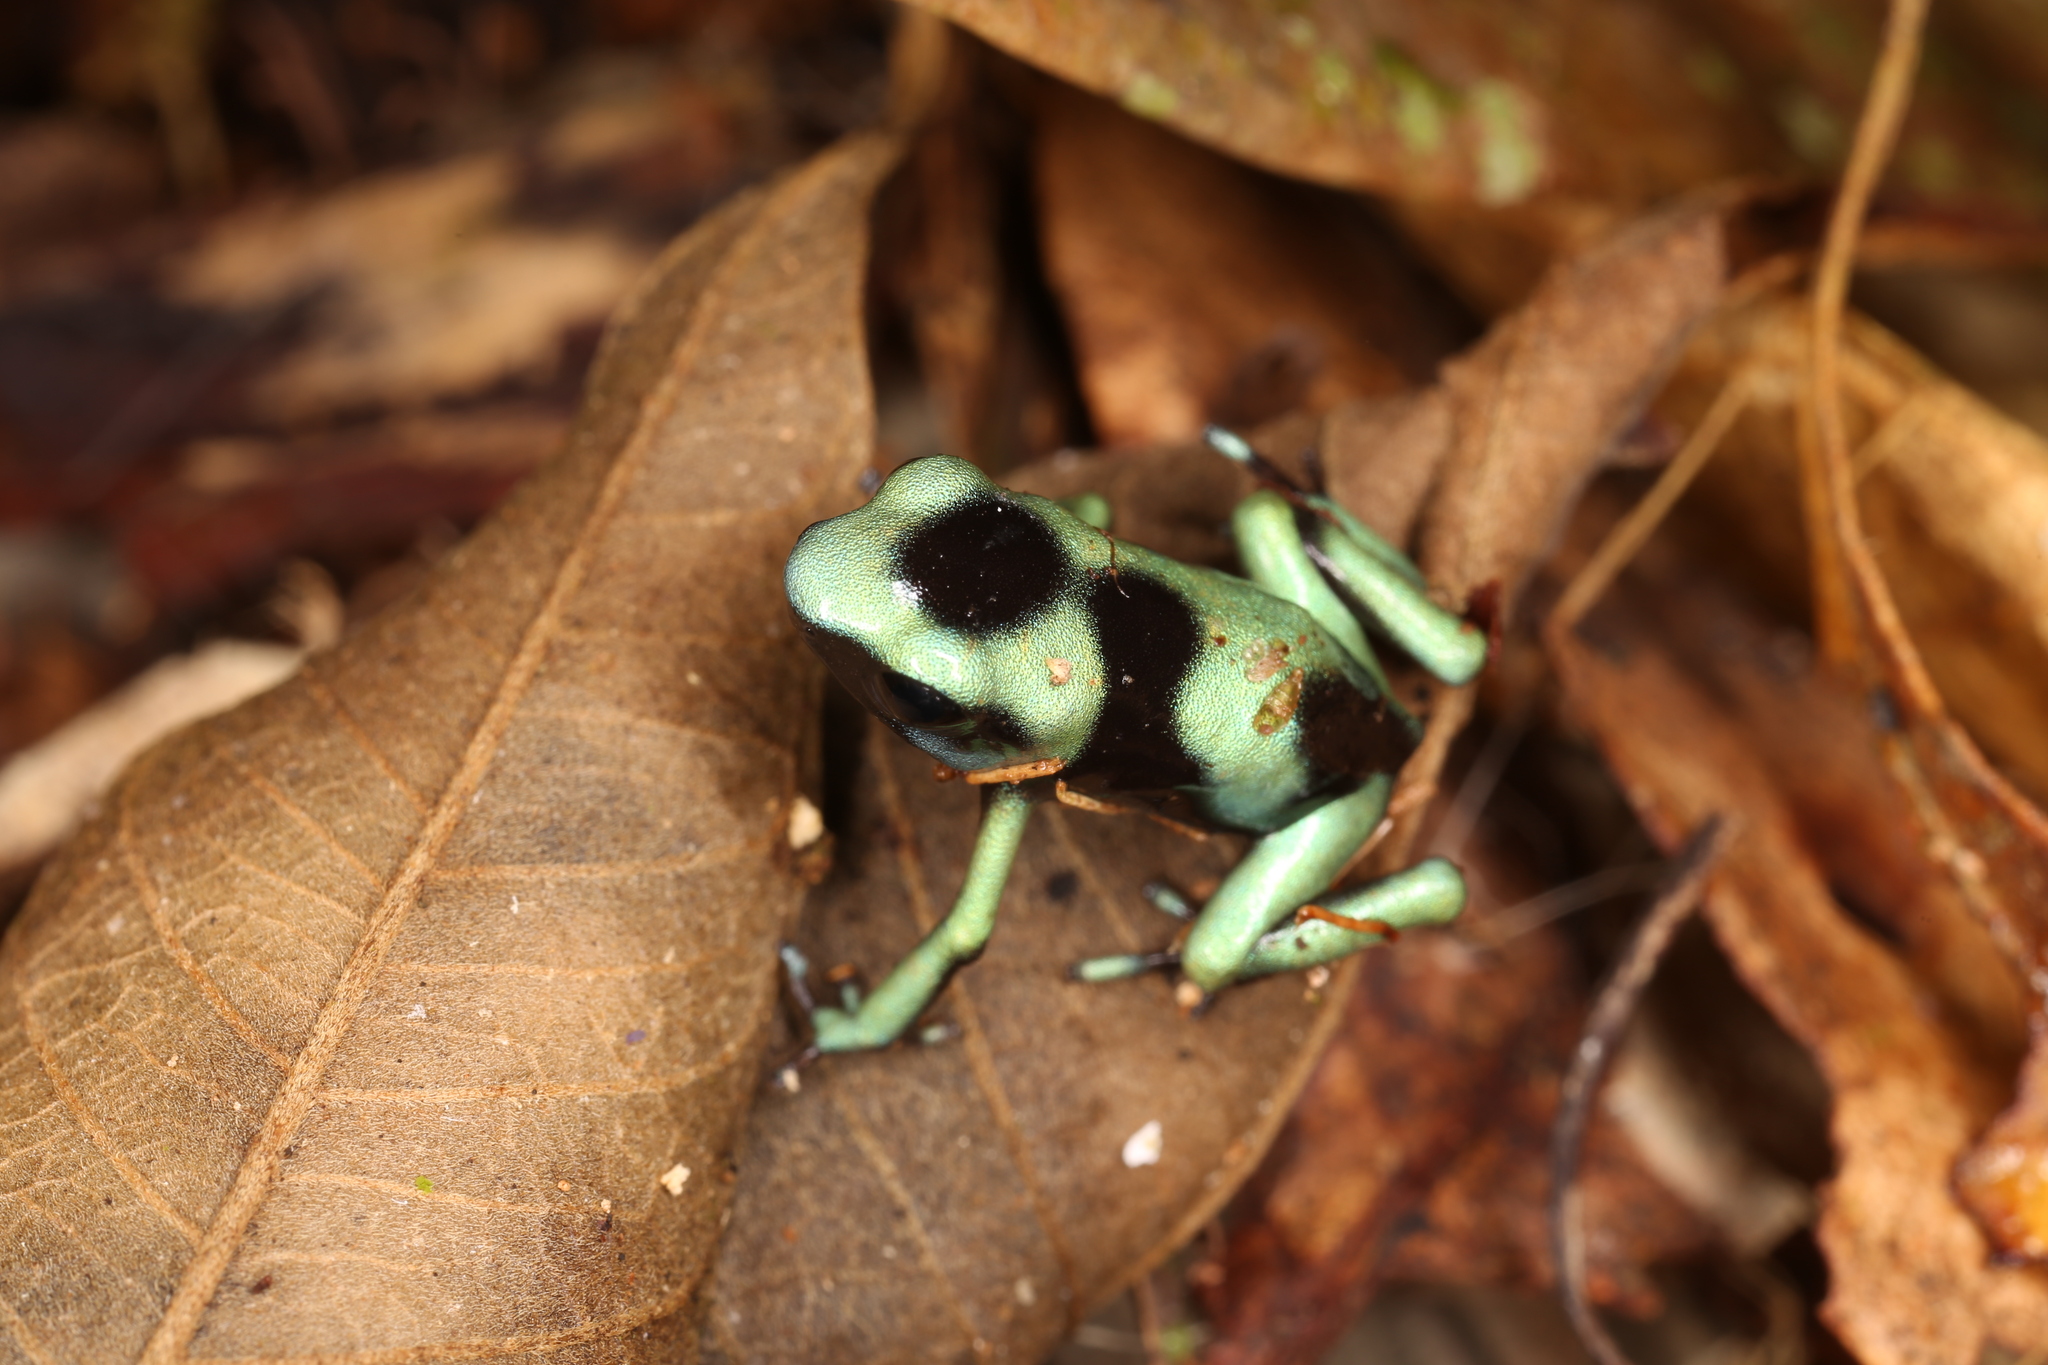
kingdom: Animalia
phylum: Chordata
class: Amphibia
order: Anura
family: Dendrobatidae
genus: Dendrobates
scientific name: Dendrobates auratus
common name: Green and black poison dart frog
